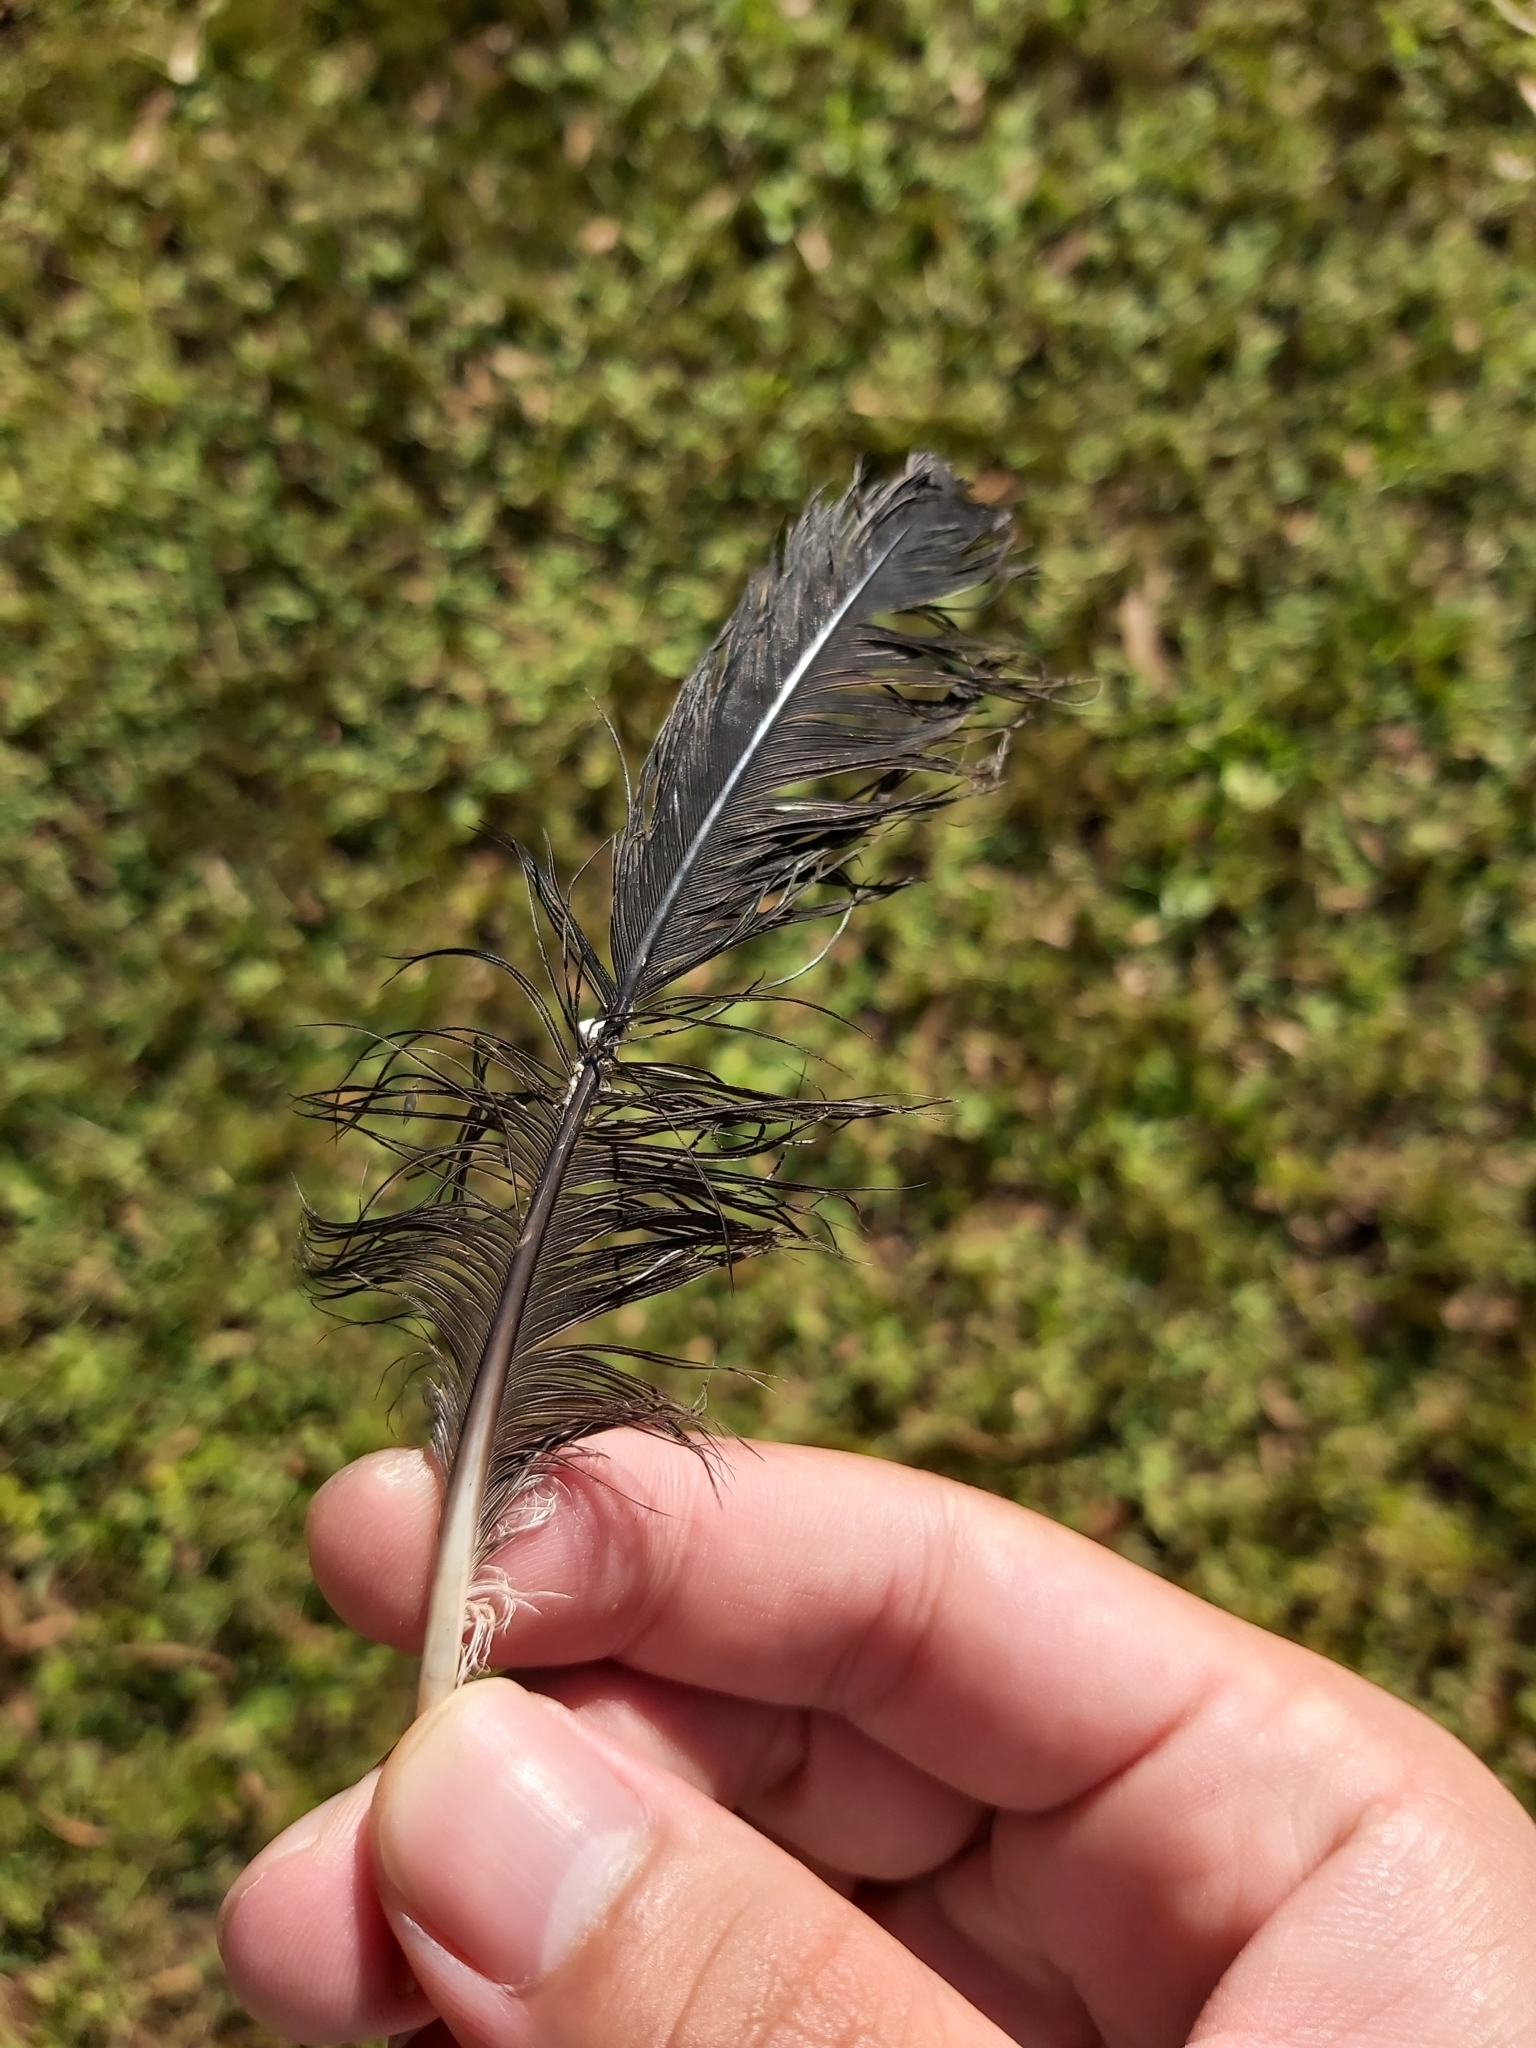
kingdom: Animalia
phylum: Chordata
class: Aves
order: Passeriformes
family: Cracticidae
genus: Gymnorhina
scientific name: Gymnorhina tibicen
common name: Australian magpie
